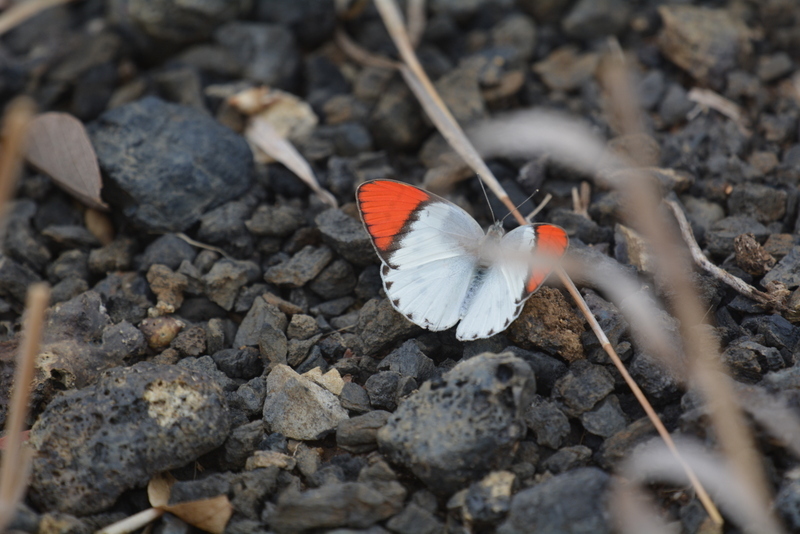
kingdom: Animalia
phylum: Arthropoda
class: Insecta
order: Lepidoptera
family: Pieridae
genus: Colotis
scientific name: Colotis annae
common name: Scarlet tip
